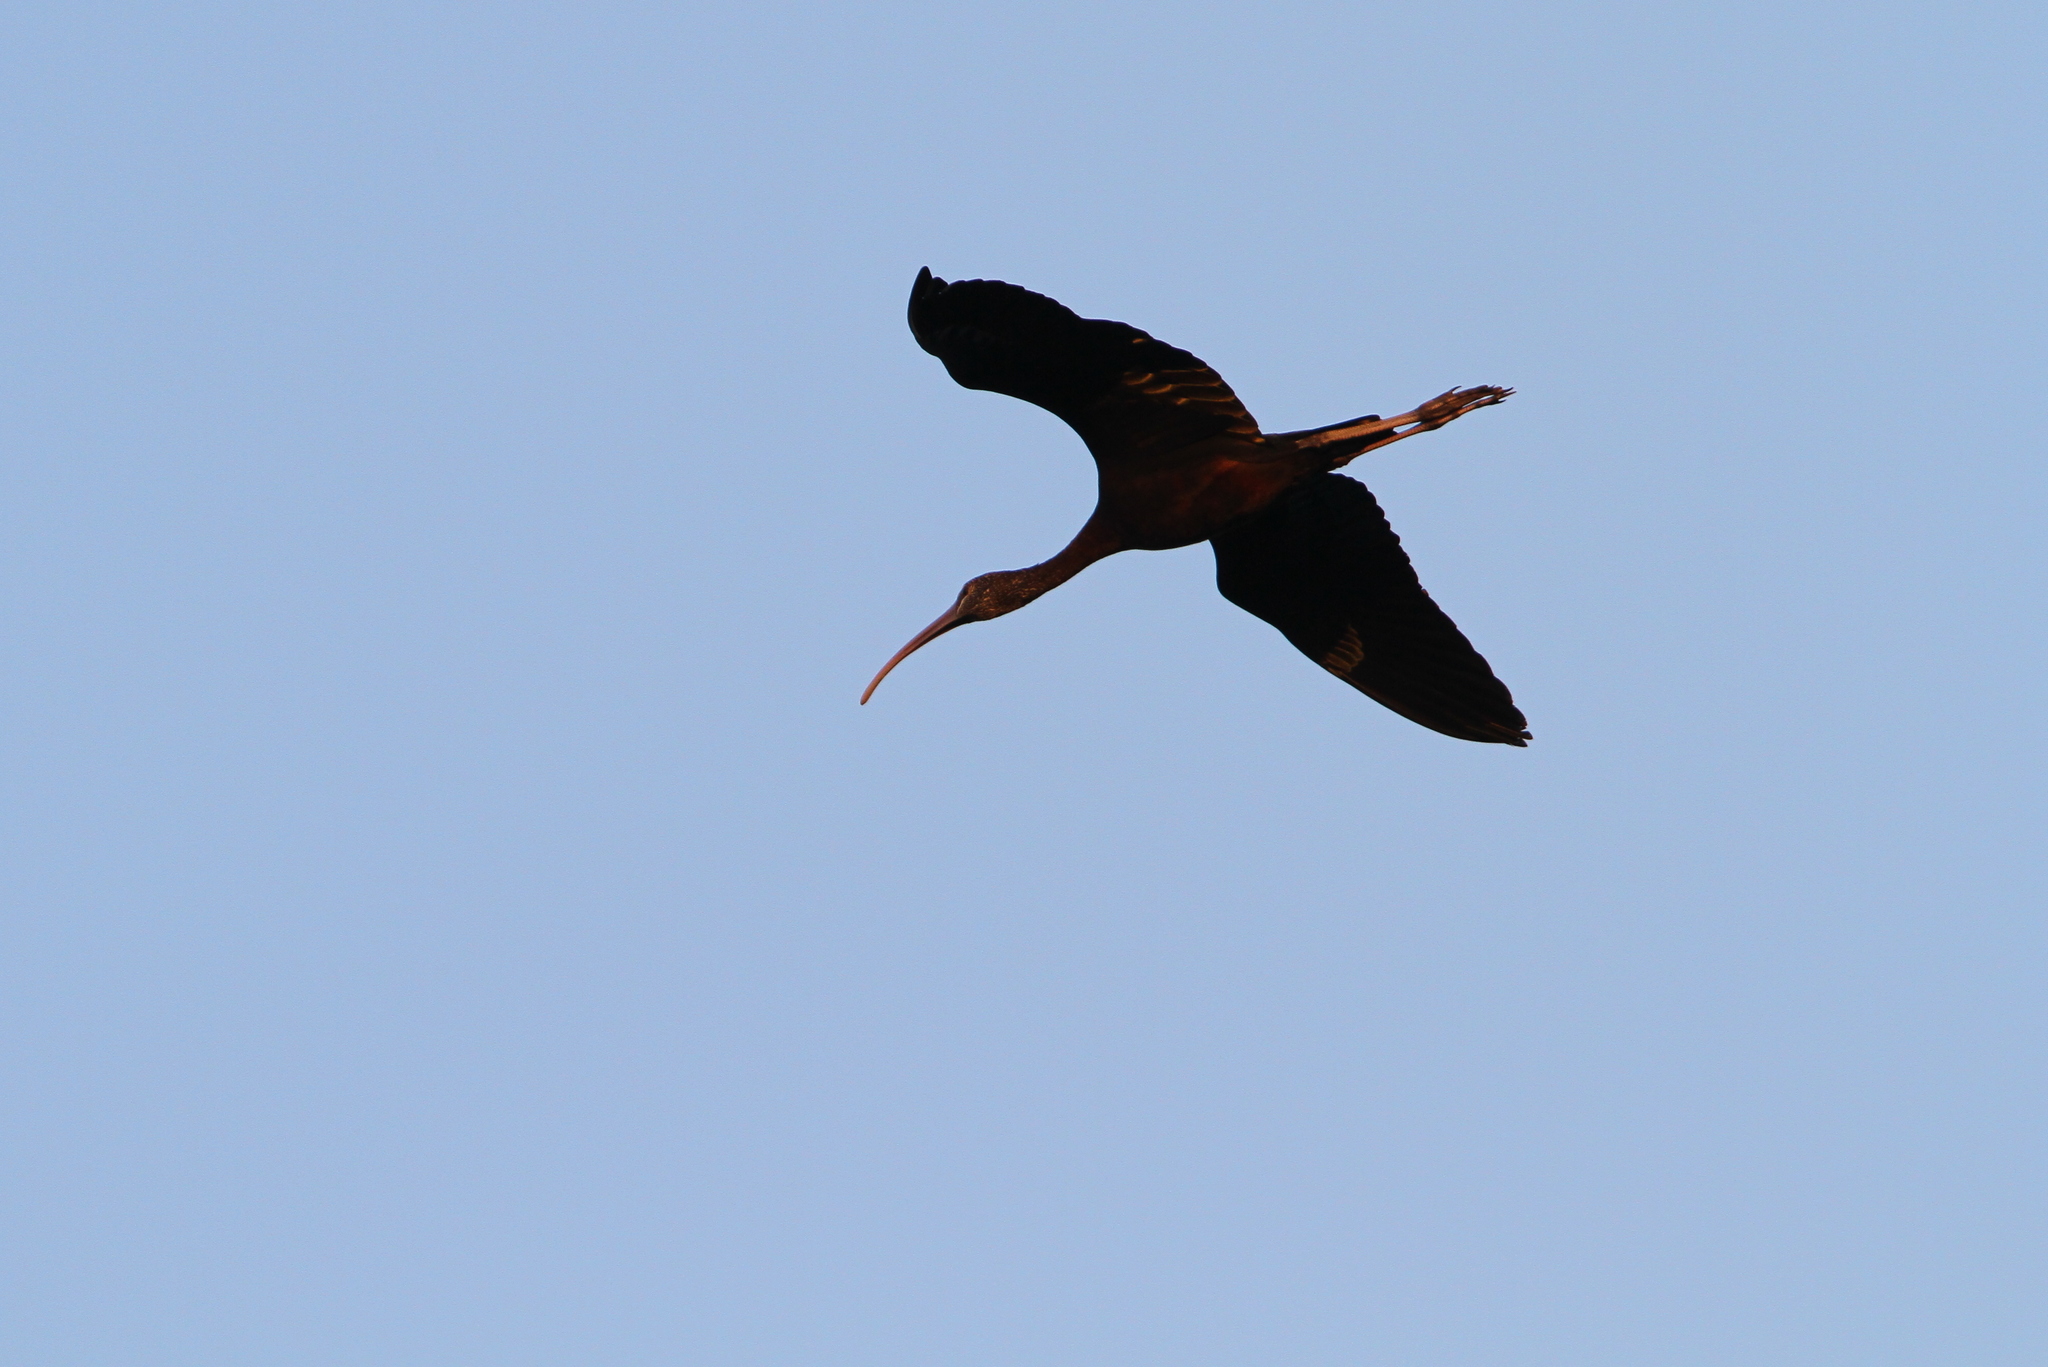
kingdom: Animalia
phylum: Chordata
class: Aves
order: Pelecaniformes
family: Threskiornithidae
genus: Plegadis
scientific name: Plegadis falcinellus
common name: Glossy ibis
